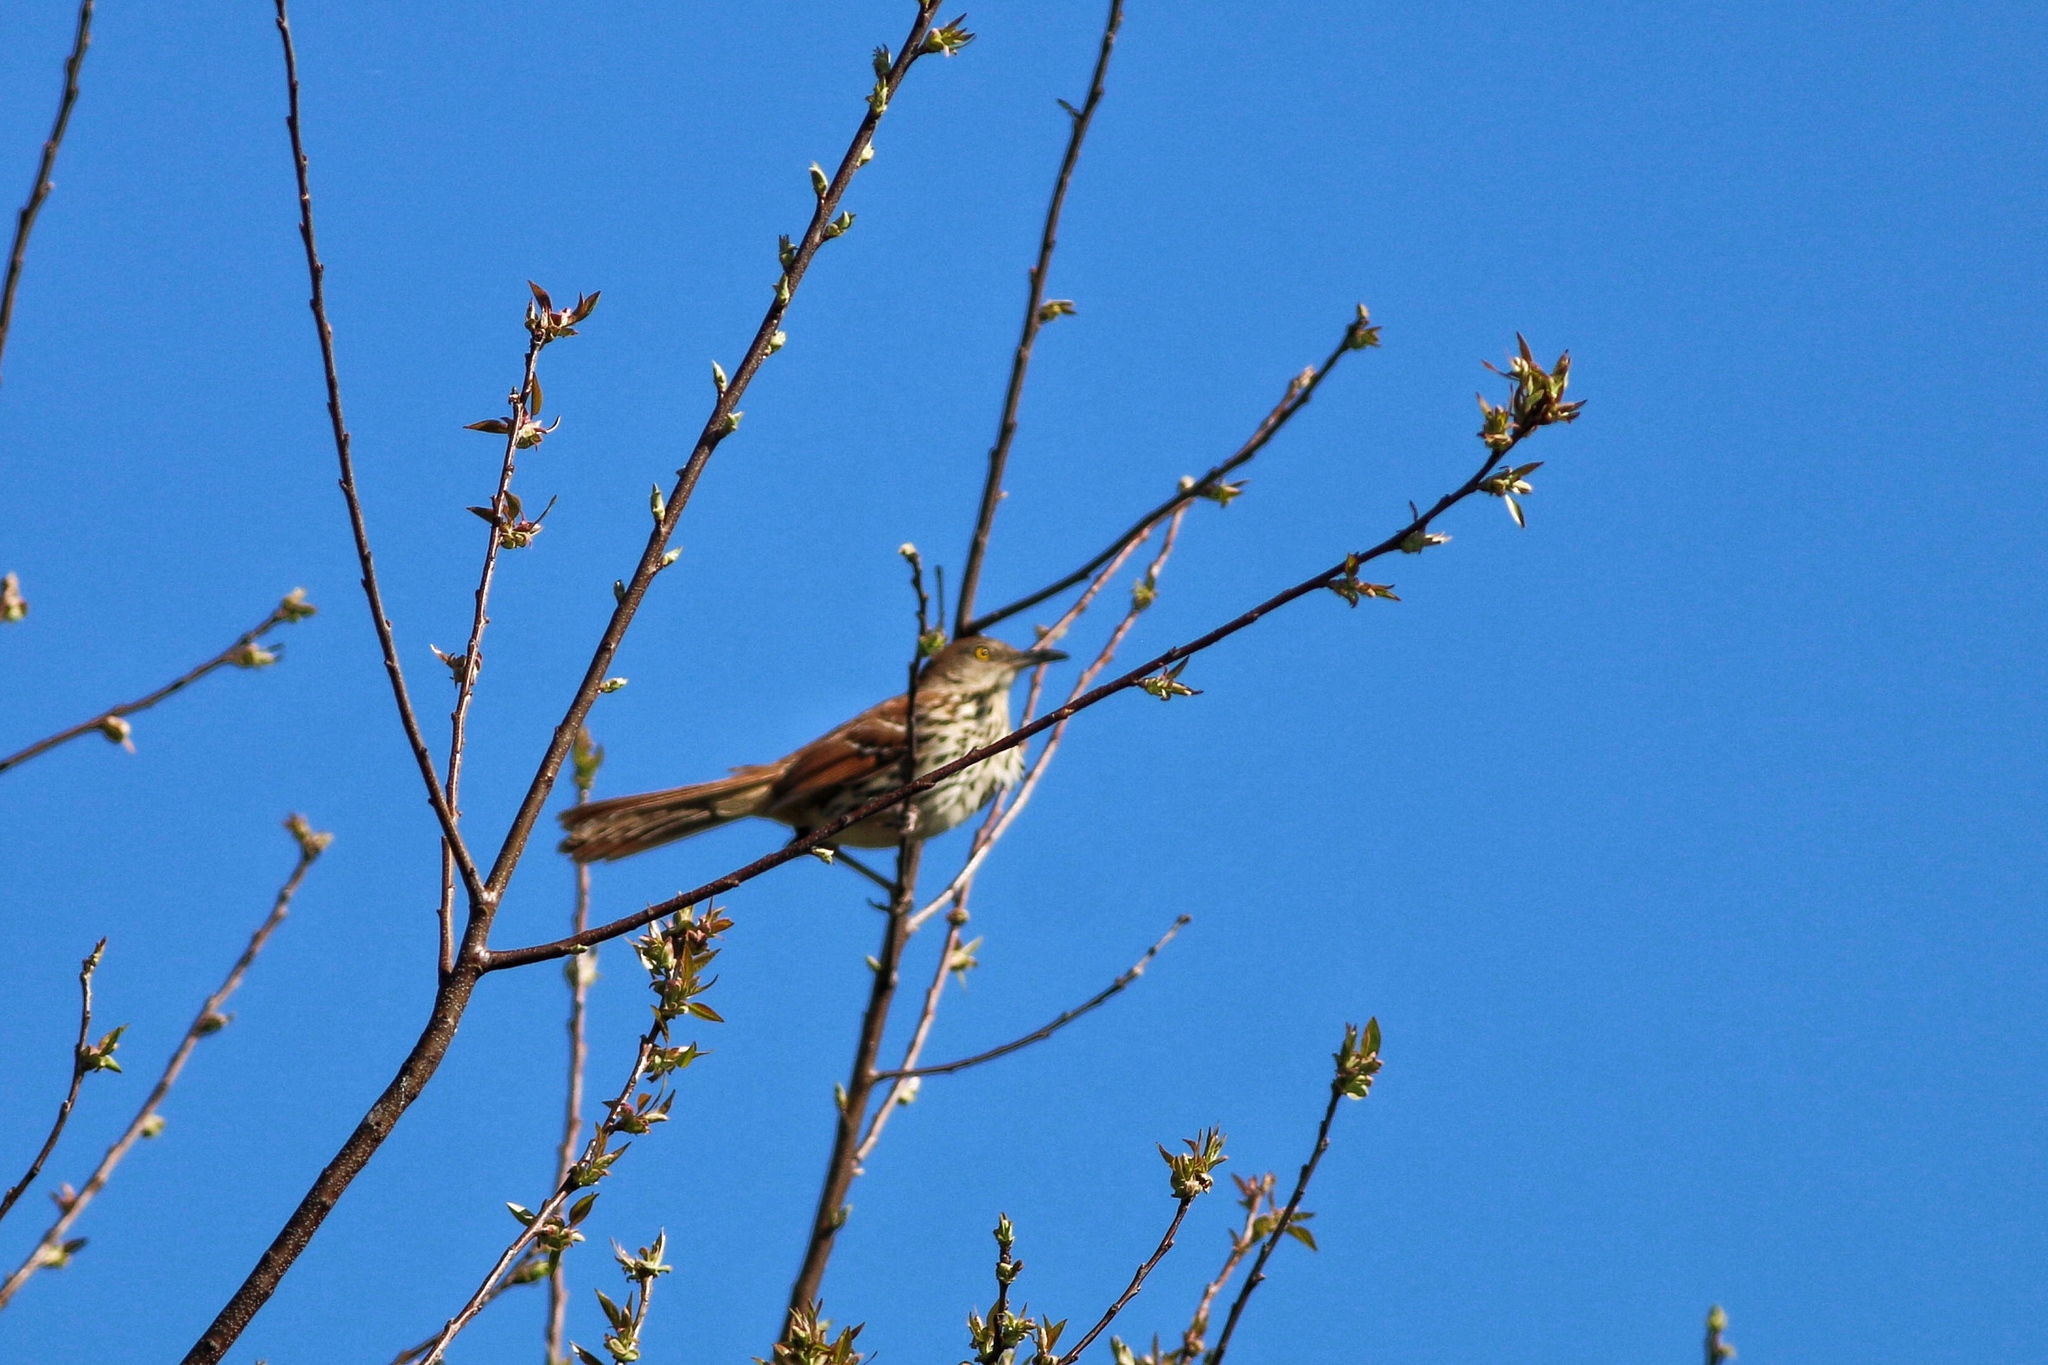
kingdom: Animalia
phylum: Chordata
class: Aves
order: Passeriformes
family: Mimidae
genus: Toxostoma
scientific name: Toxostoma rufum
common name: Brown thrasher
